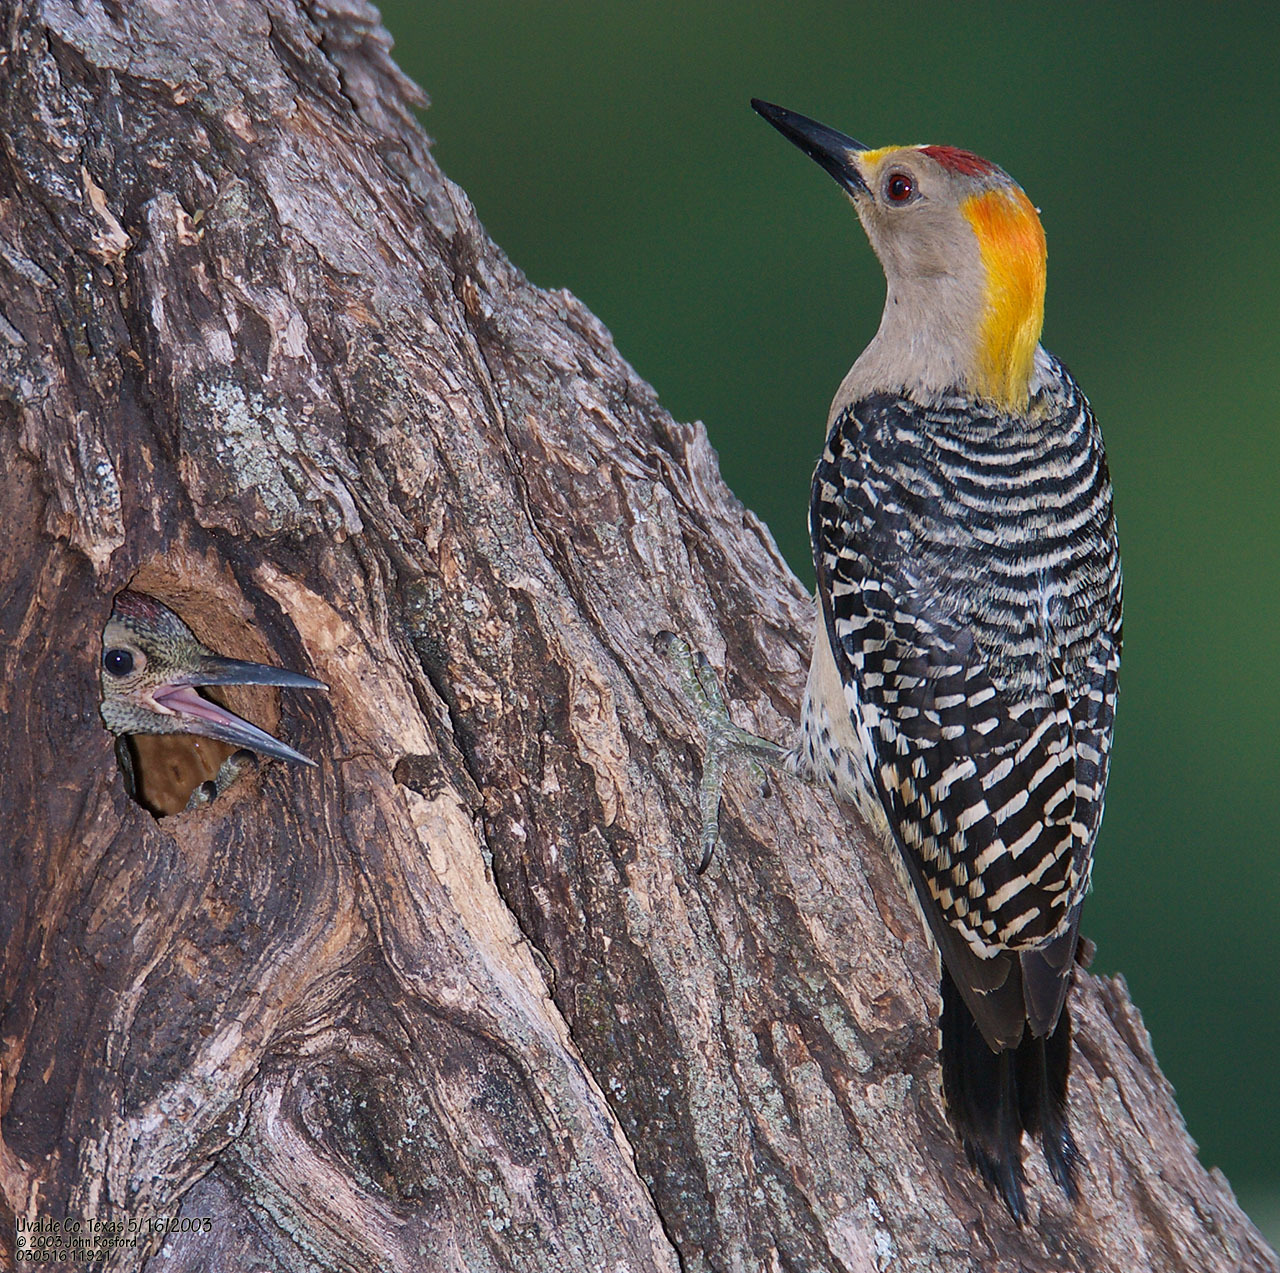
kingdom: Animalia
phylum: Chordata
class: Aves
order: Piciformes
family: Picidae
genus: Melanerpes
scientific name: Melanerpes aurifrons
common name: Golden-fronted woodpecker
